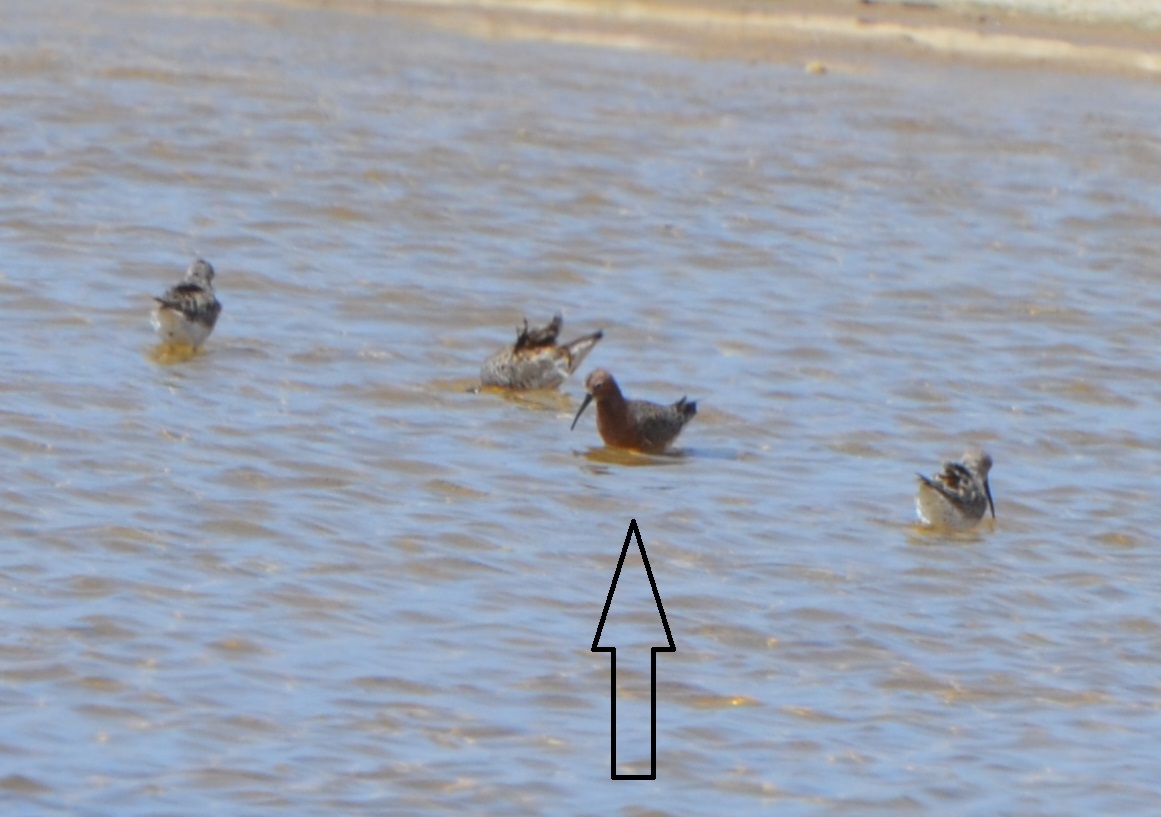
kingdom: Animalia
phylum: Chordata
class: Aves
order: Charadriiformes
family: Scolopacidae
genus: Calidris
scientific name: Calidris ferruginea
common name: Curlew sandpiper
